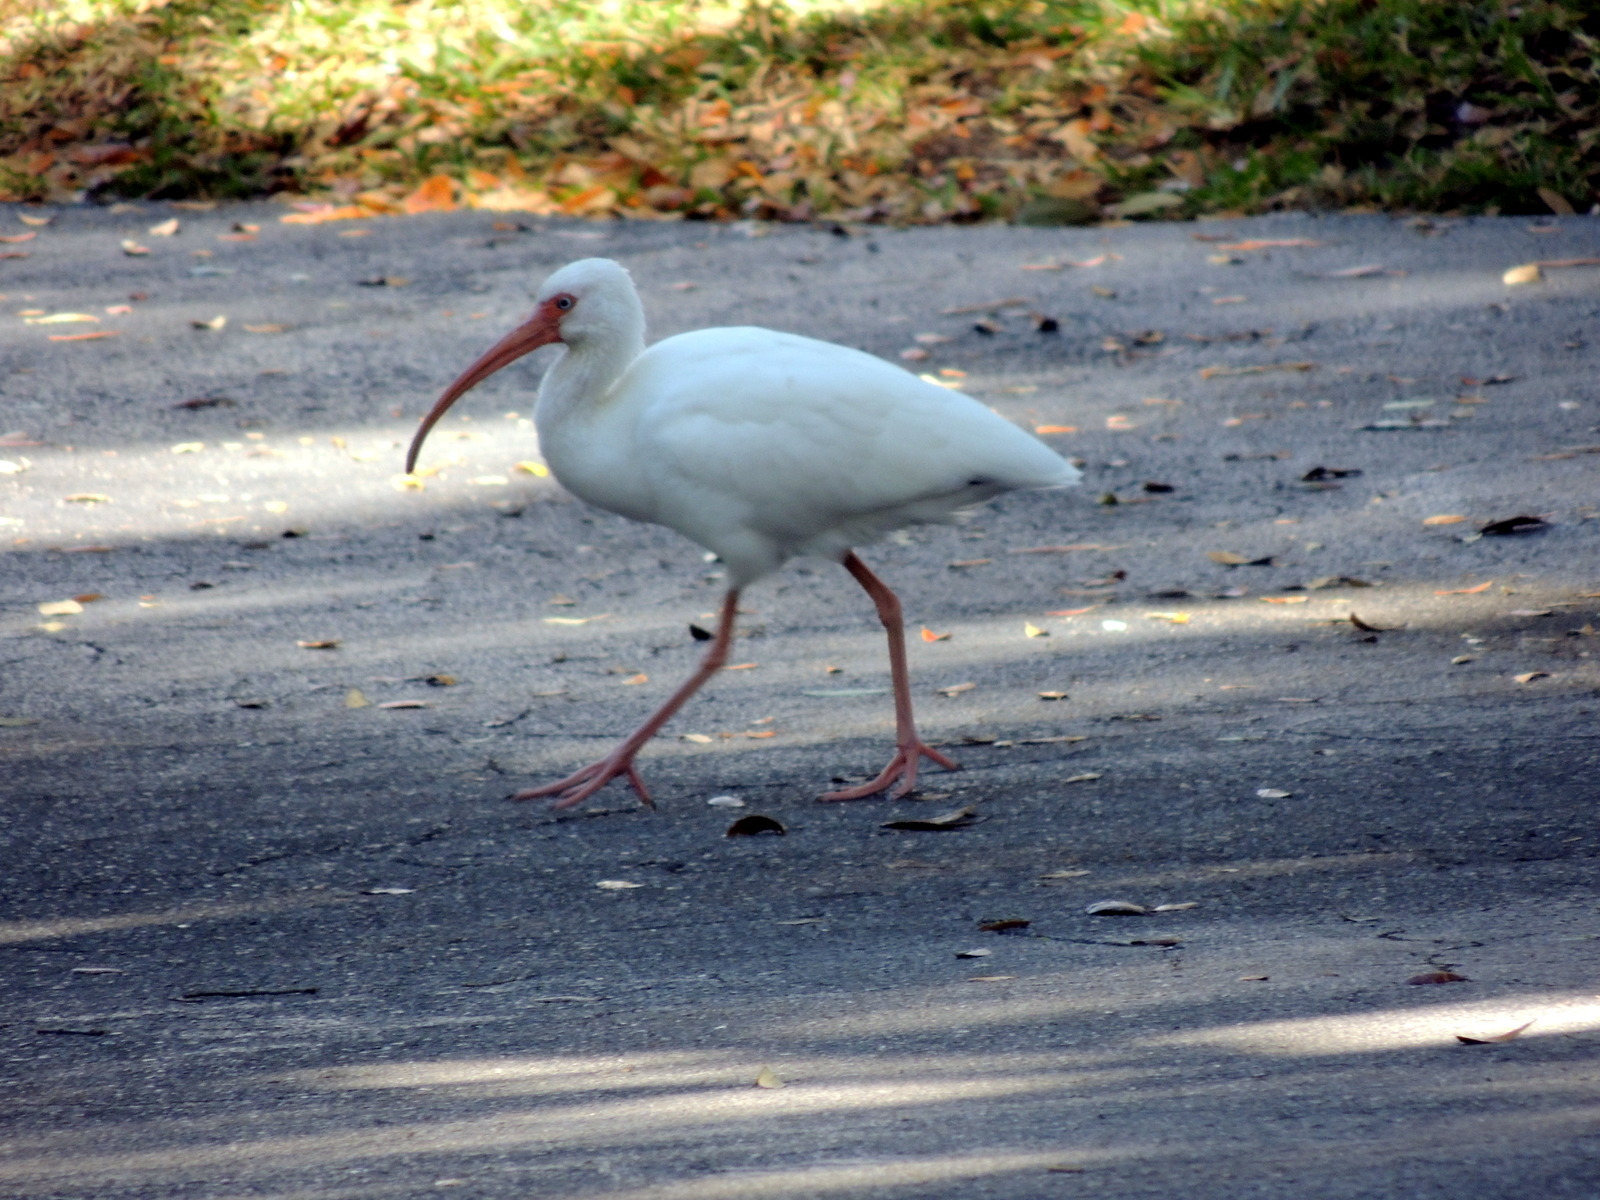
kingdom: Animalia
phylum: Chordata
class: Aves
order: Pelecaniformes
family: Threskiornithidae
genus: Eudocimus
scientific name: Eudocimus albus
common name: White ibis
